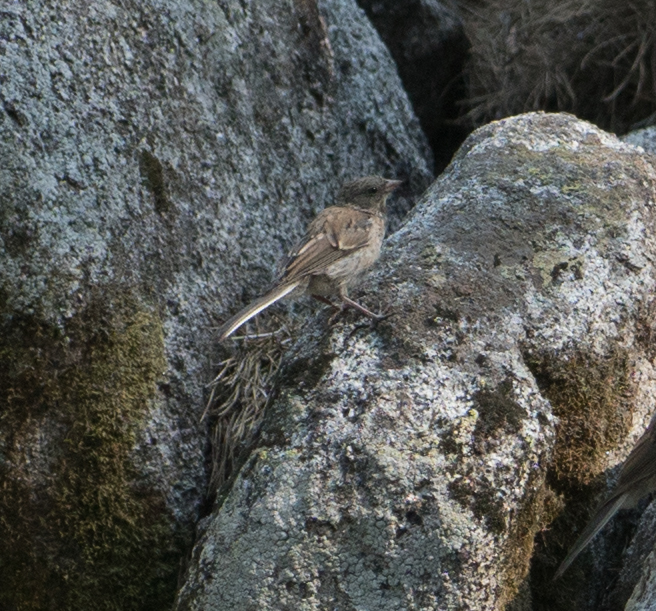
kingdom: Animalia
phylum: Chordata
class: Aves
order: Passeriformes
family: Passerellidae
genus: Junco
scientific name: Junco hyemalis
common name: Dark-eyed junco
